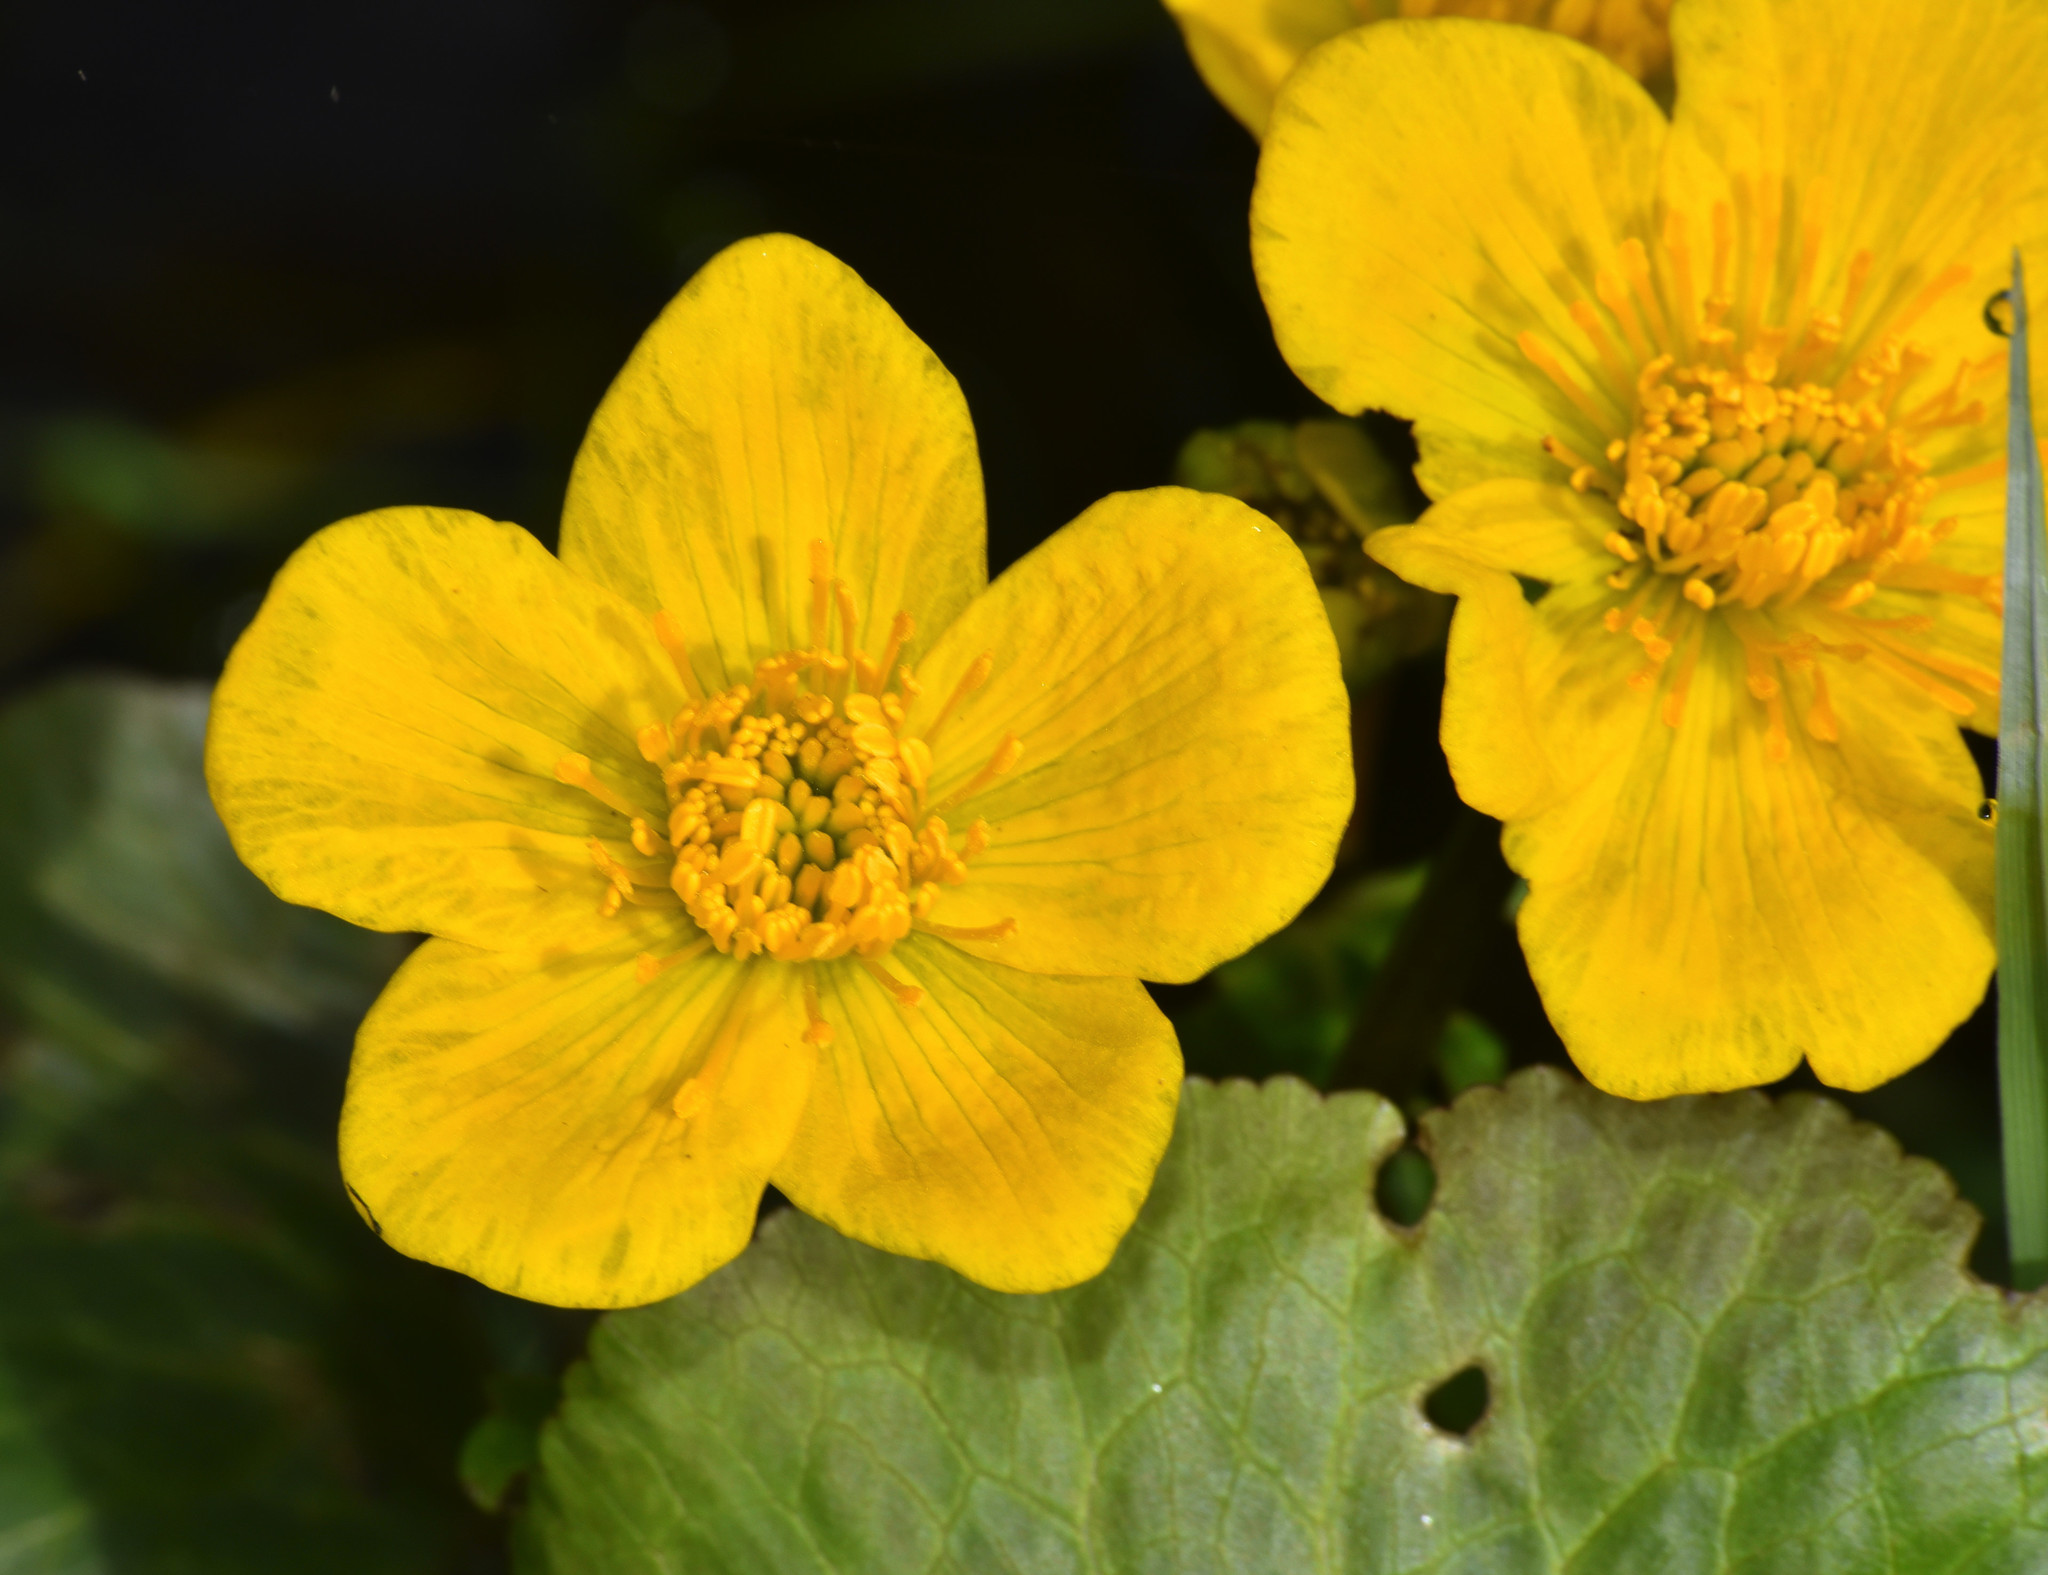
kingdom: Plantae
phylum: Tracheophyta
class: Magnoliopsida
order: Ranunculales
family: Ranunculaceae
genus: Caltha
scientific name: Caltha palustris
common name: Marsh marigold
